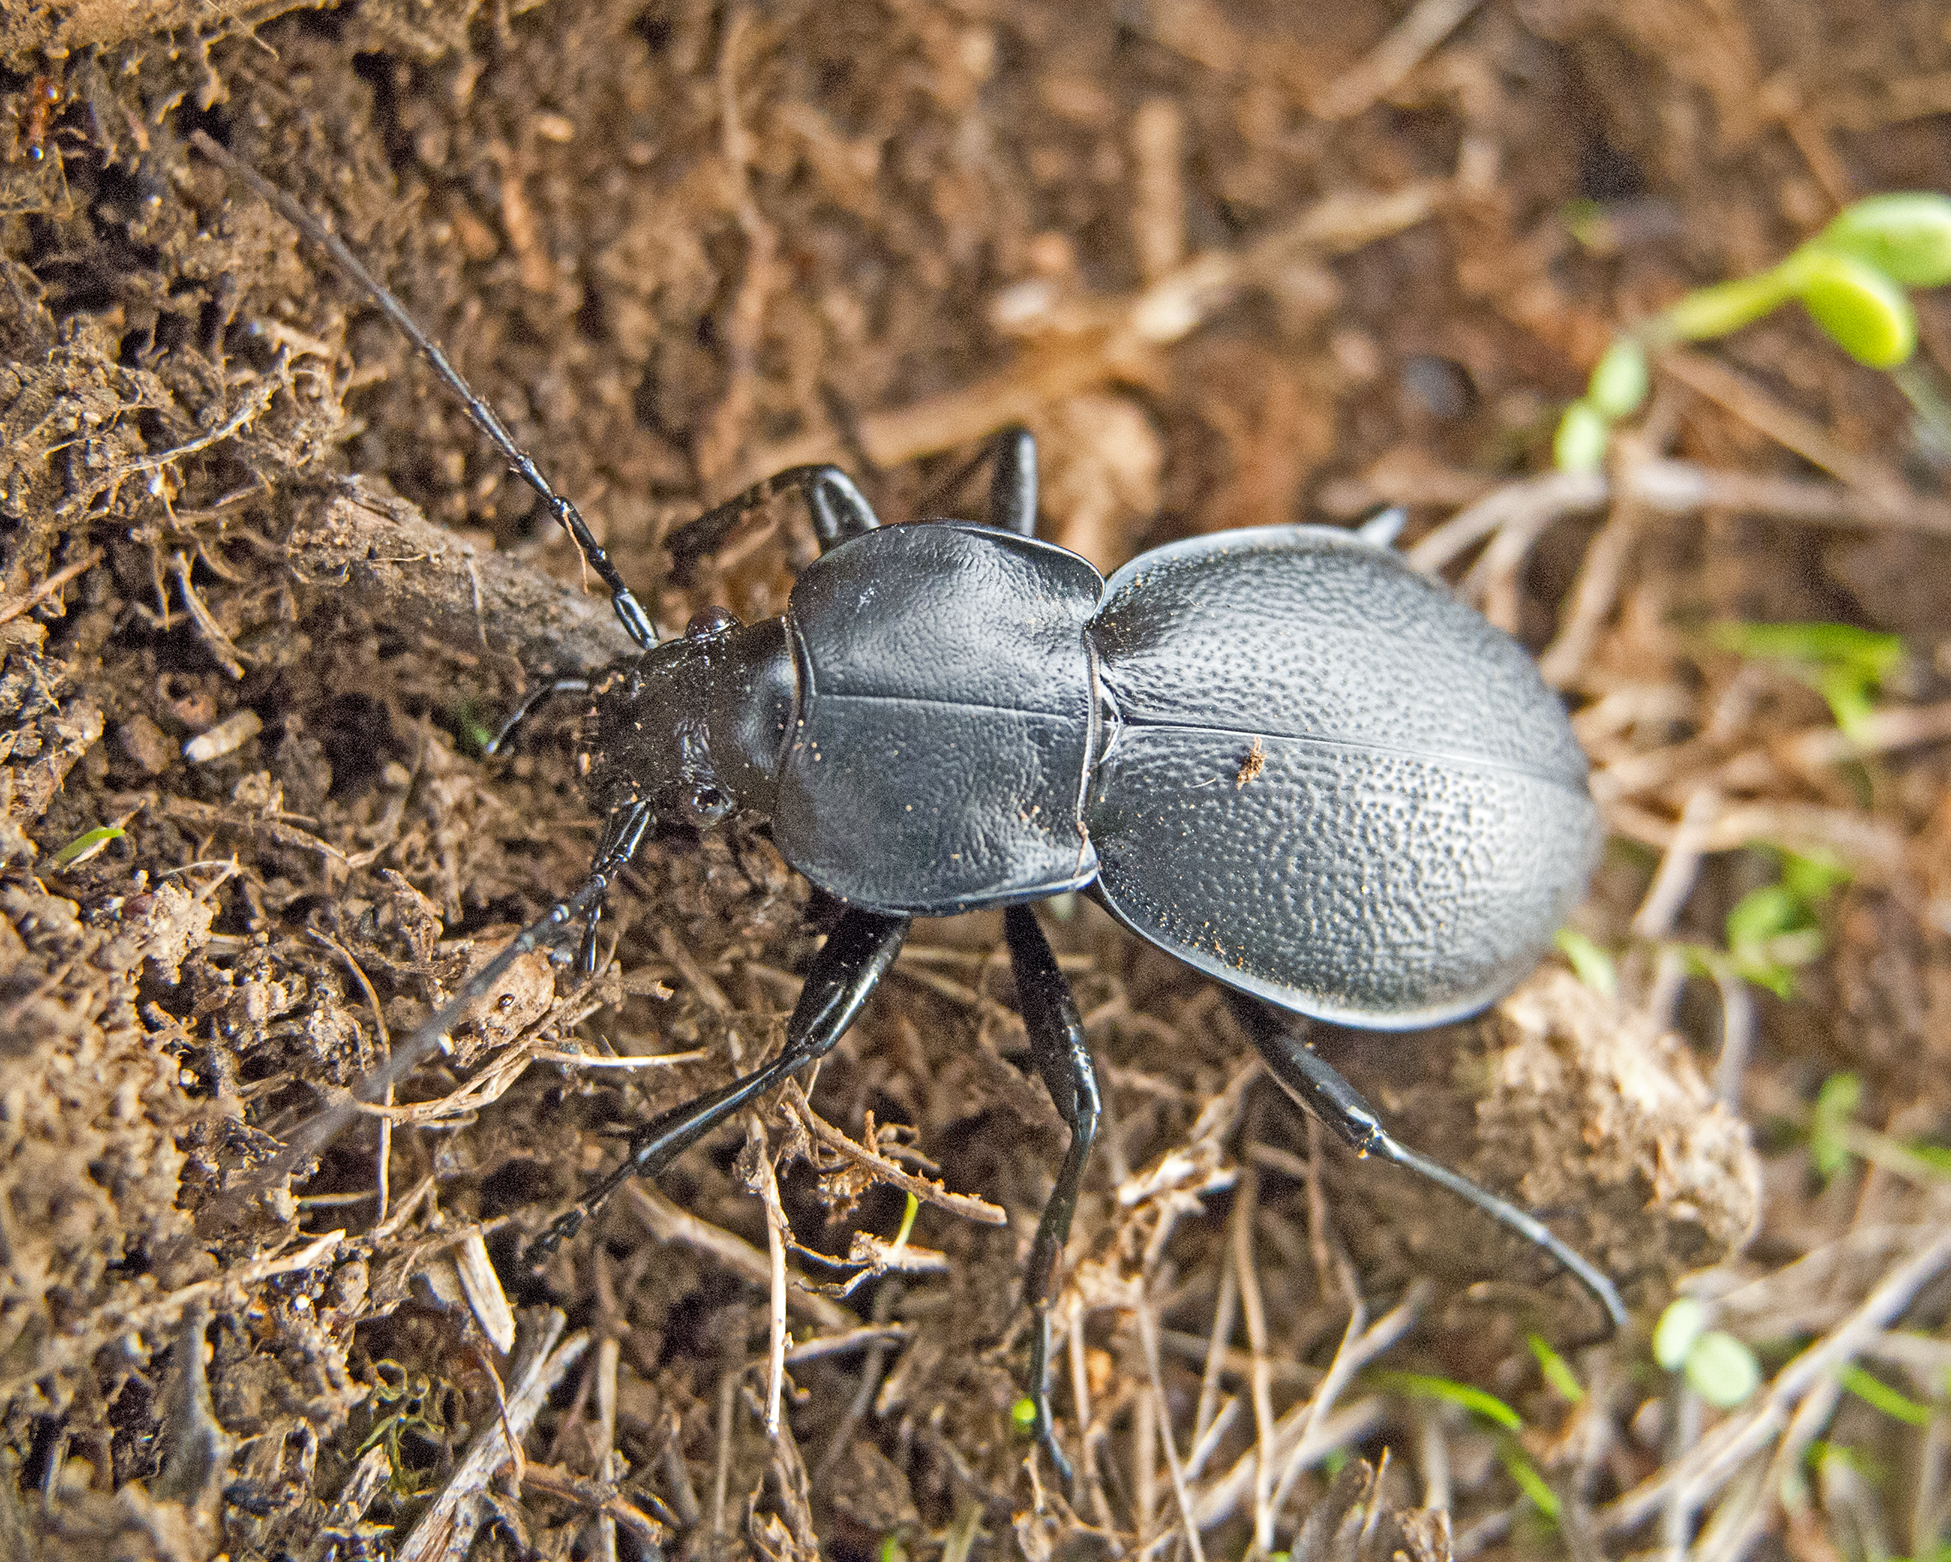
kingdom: Animalia
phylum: Arthropoda
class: Insecta
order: Coleoptera
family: Carabidae
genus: Carabus
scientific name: Carabus coriaceus
